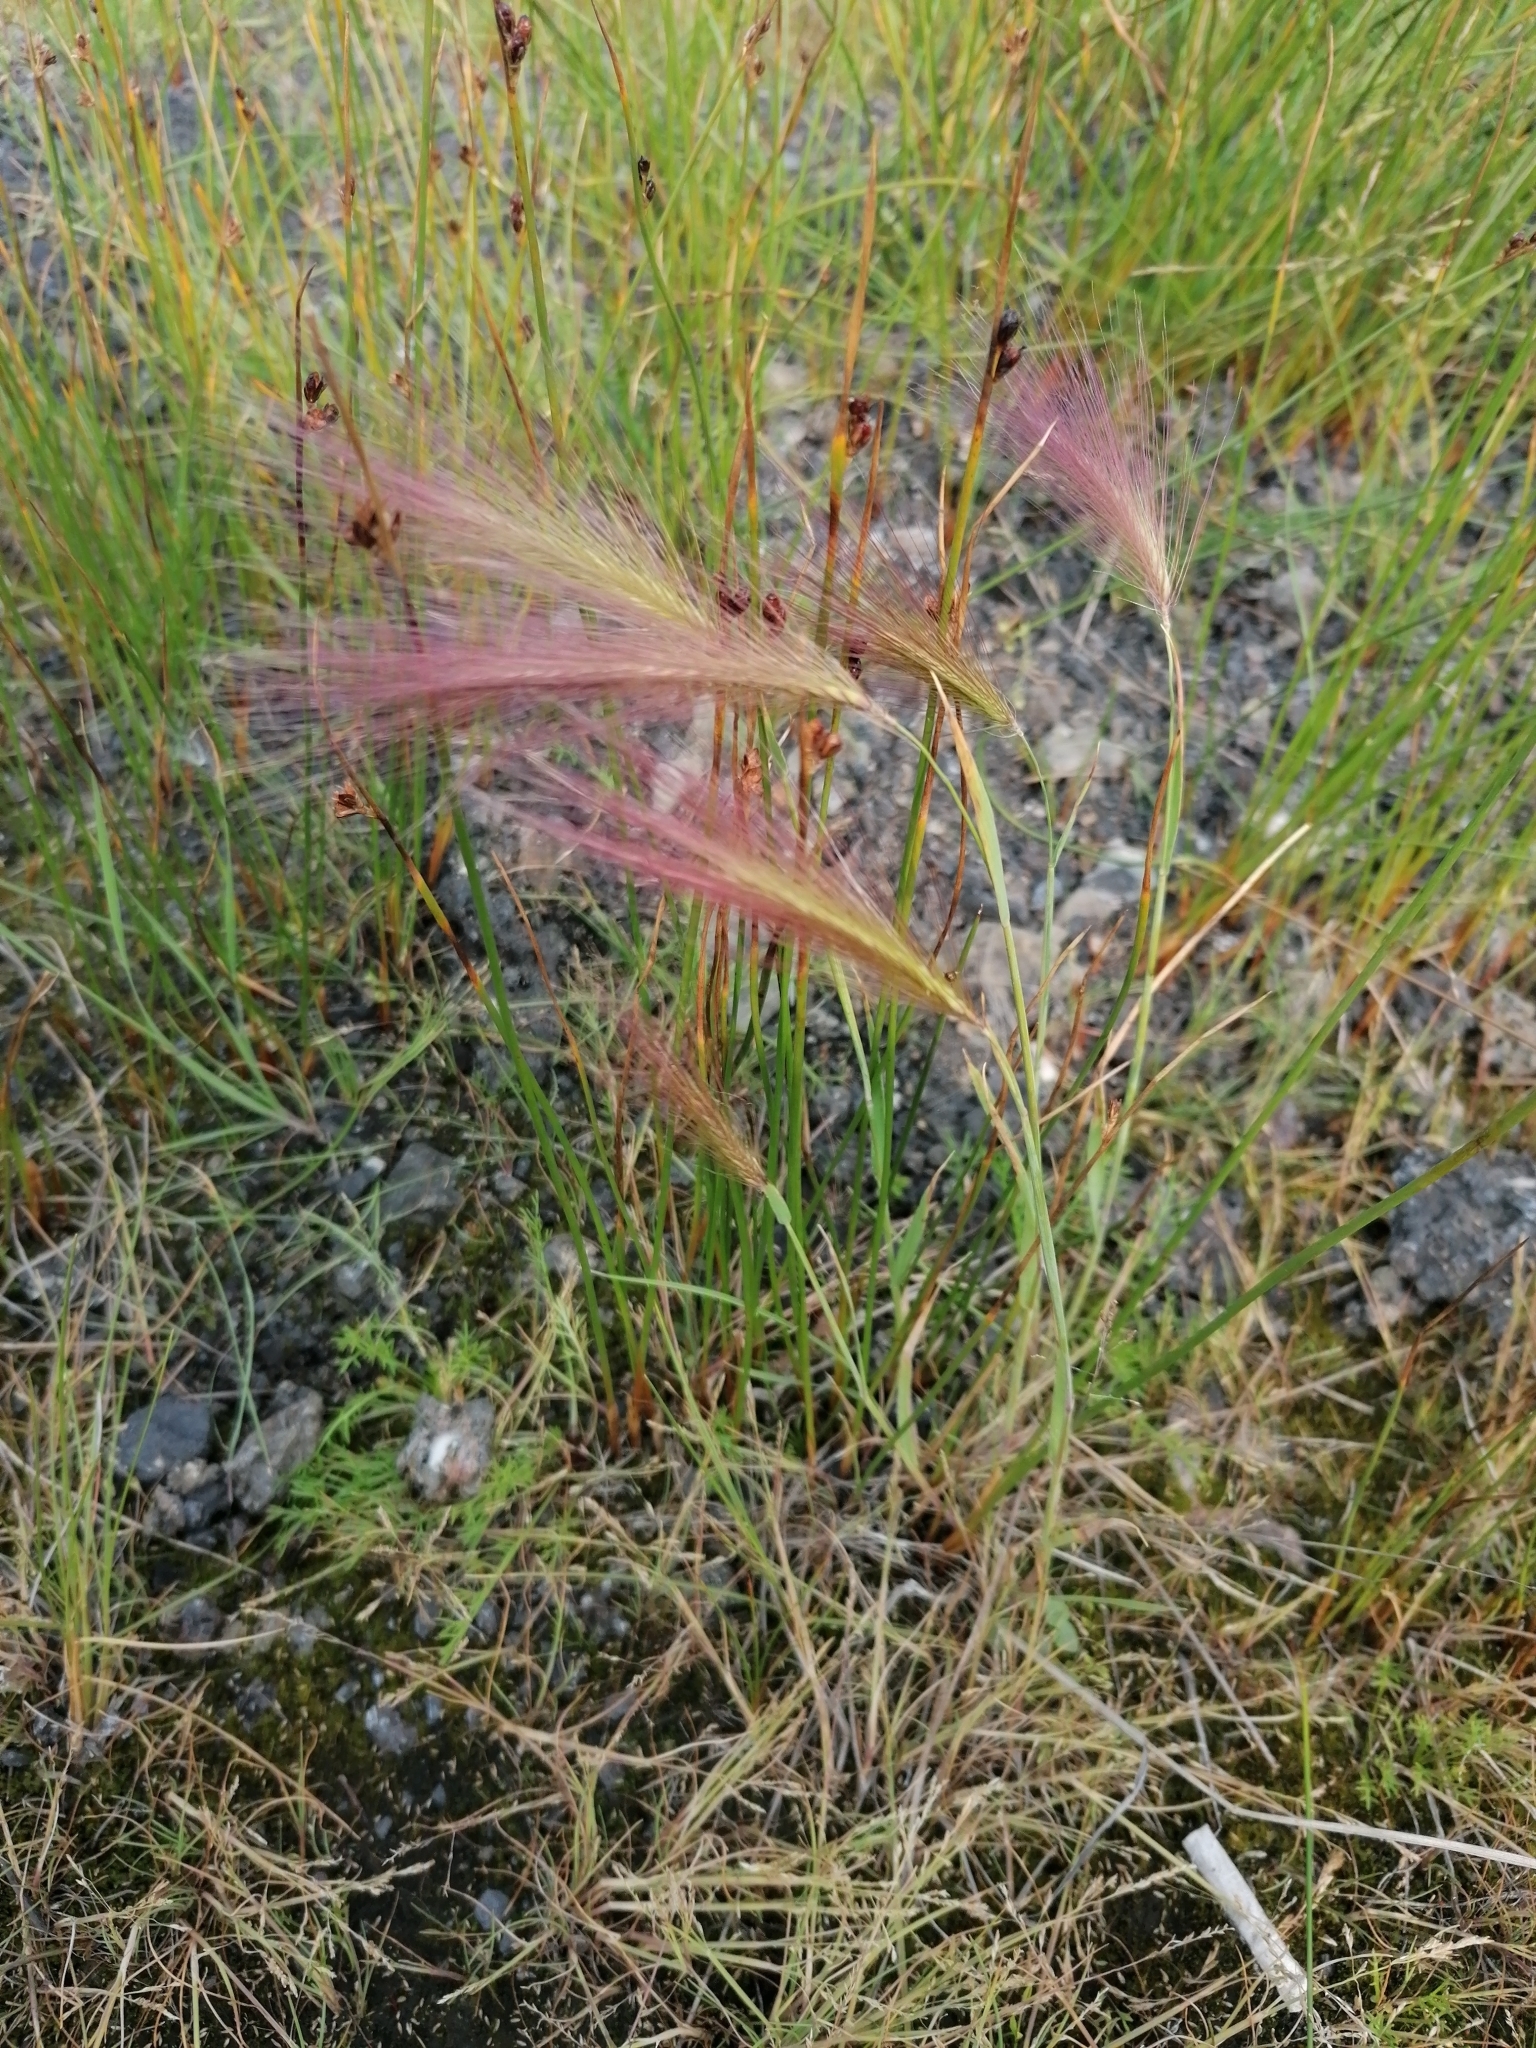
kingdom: Plantae
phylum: Tracheophyta
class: Liliopsida
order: Poales
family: Poaceae
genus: Hordeum
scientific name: Hordeum jubatum
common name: Foxtail barley
